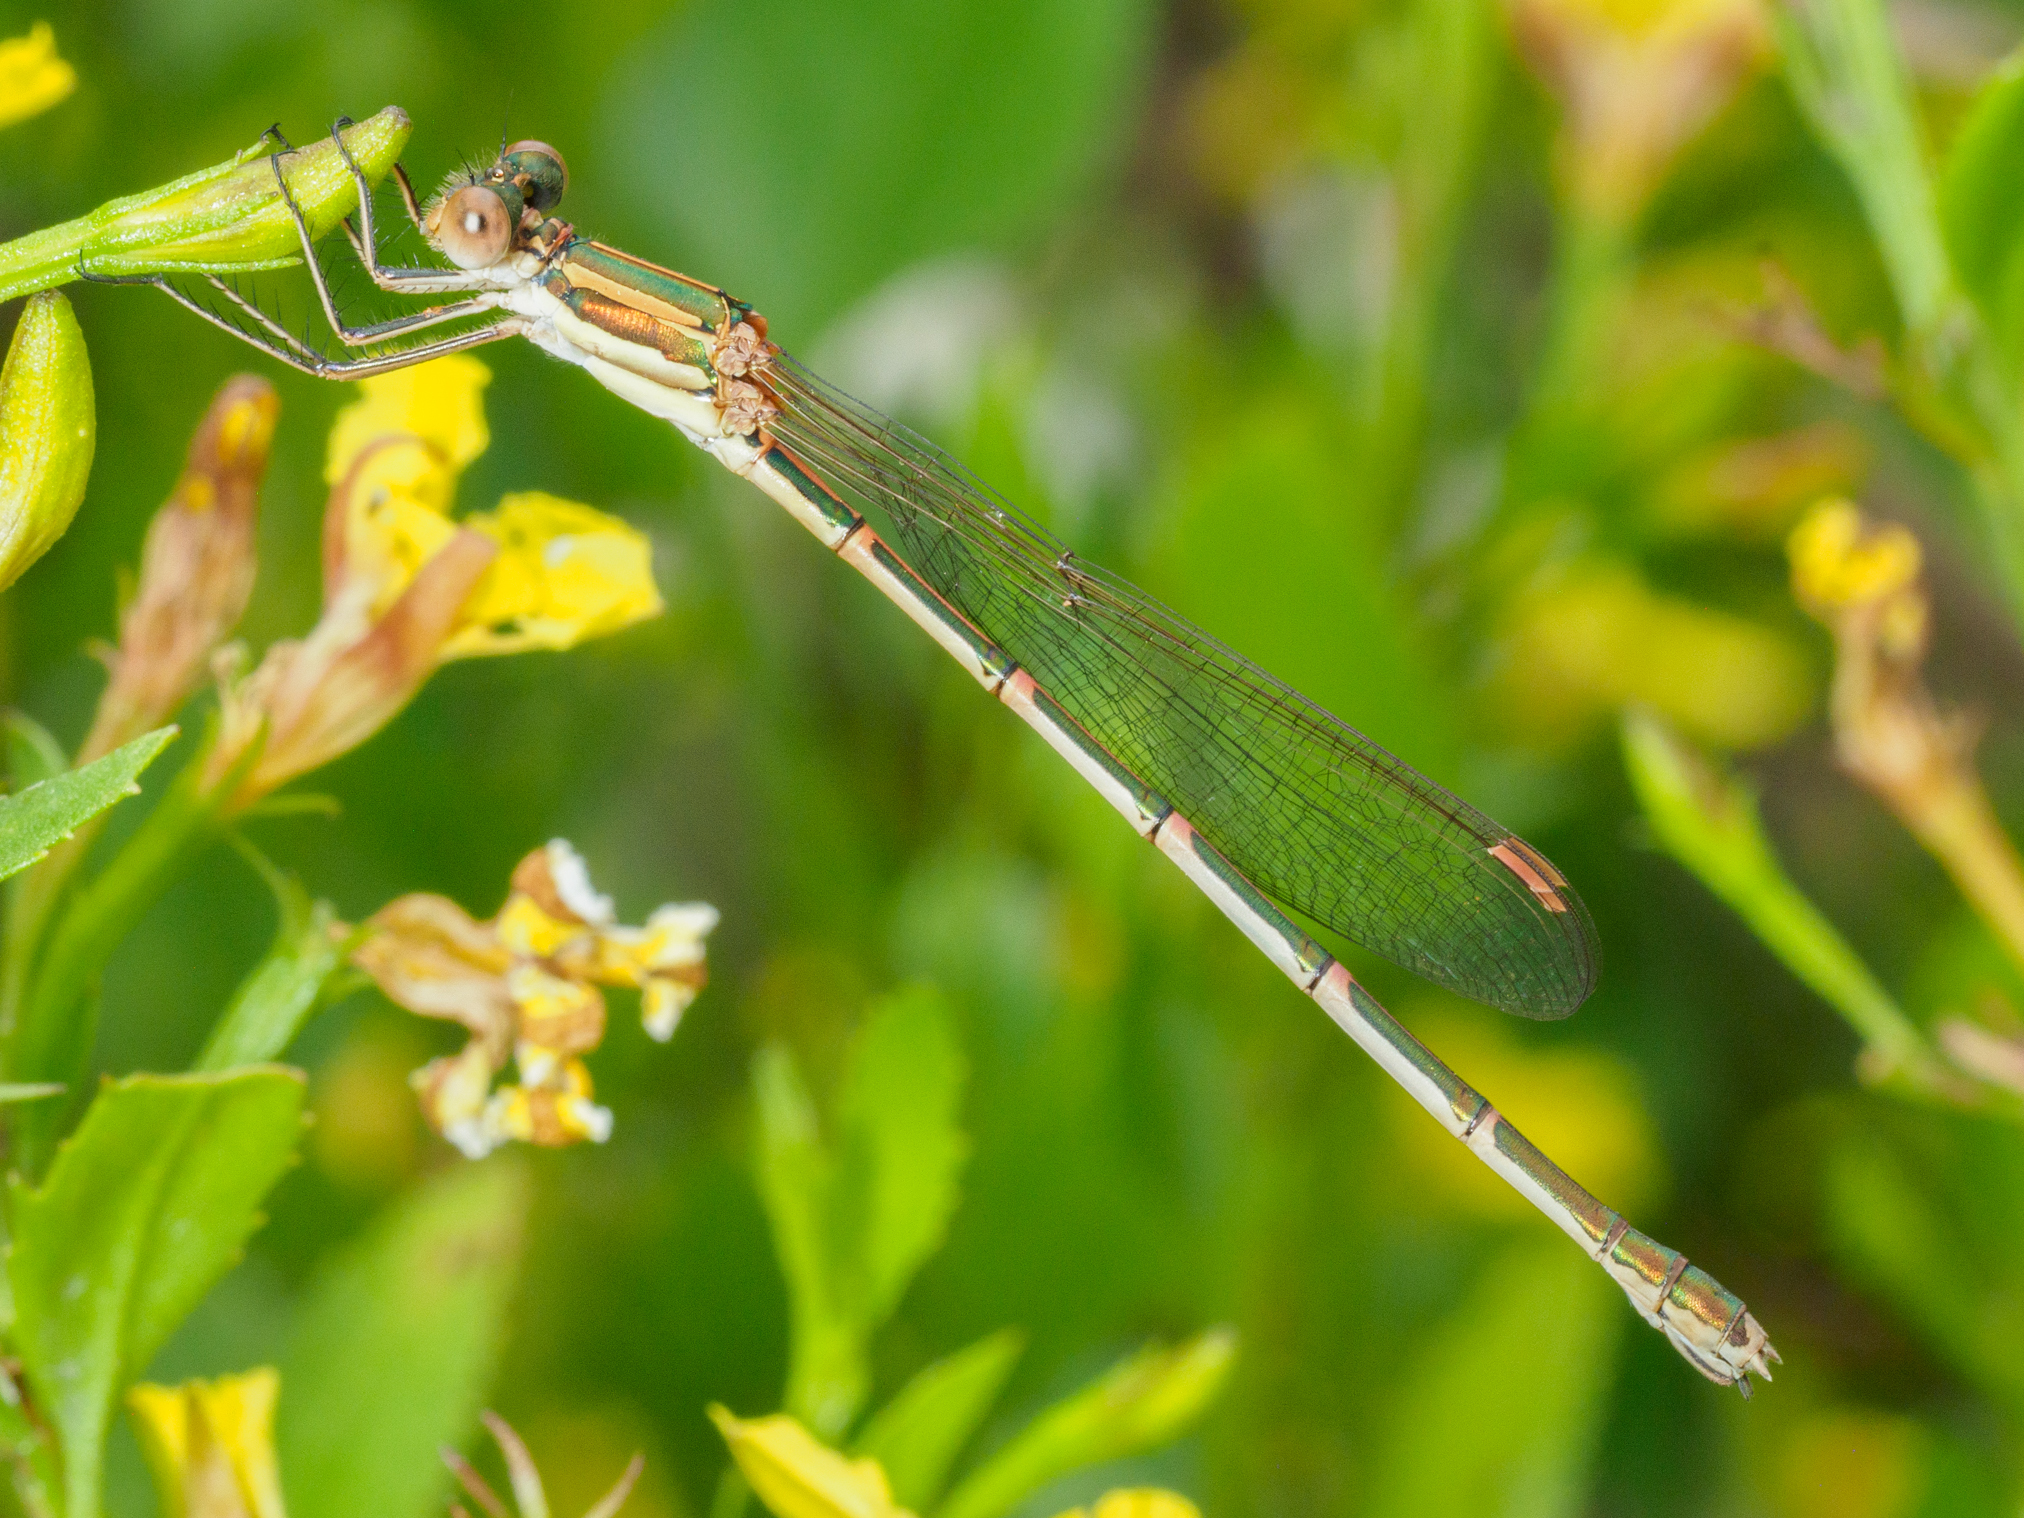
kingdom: Animalia
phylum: Arthropoda
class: Insecta
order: Odonata
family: Lestidae
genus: Austrolestes
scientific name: Austrolestes analis
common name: Slender ringtail
